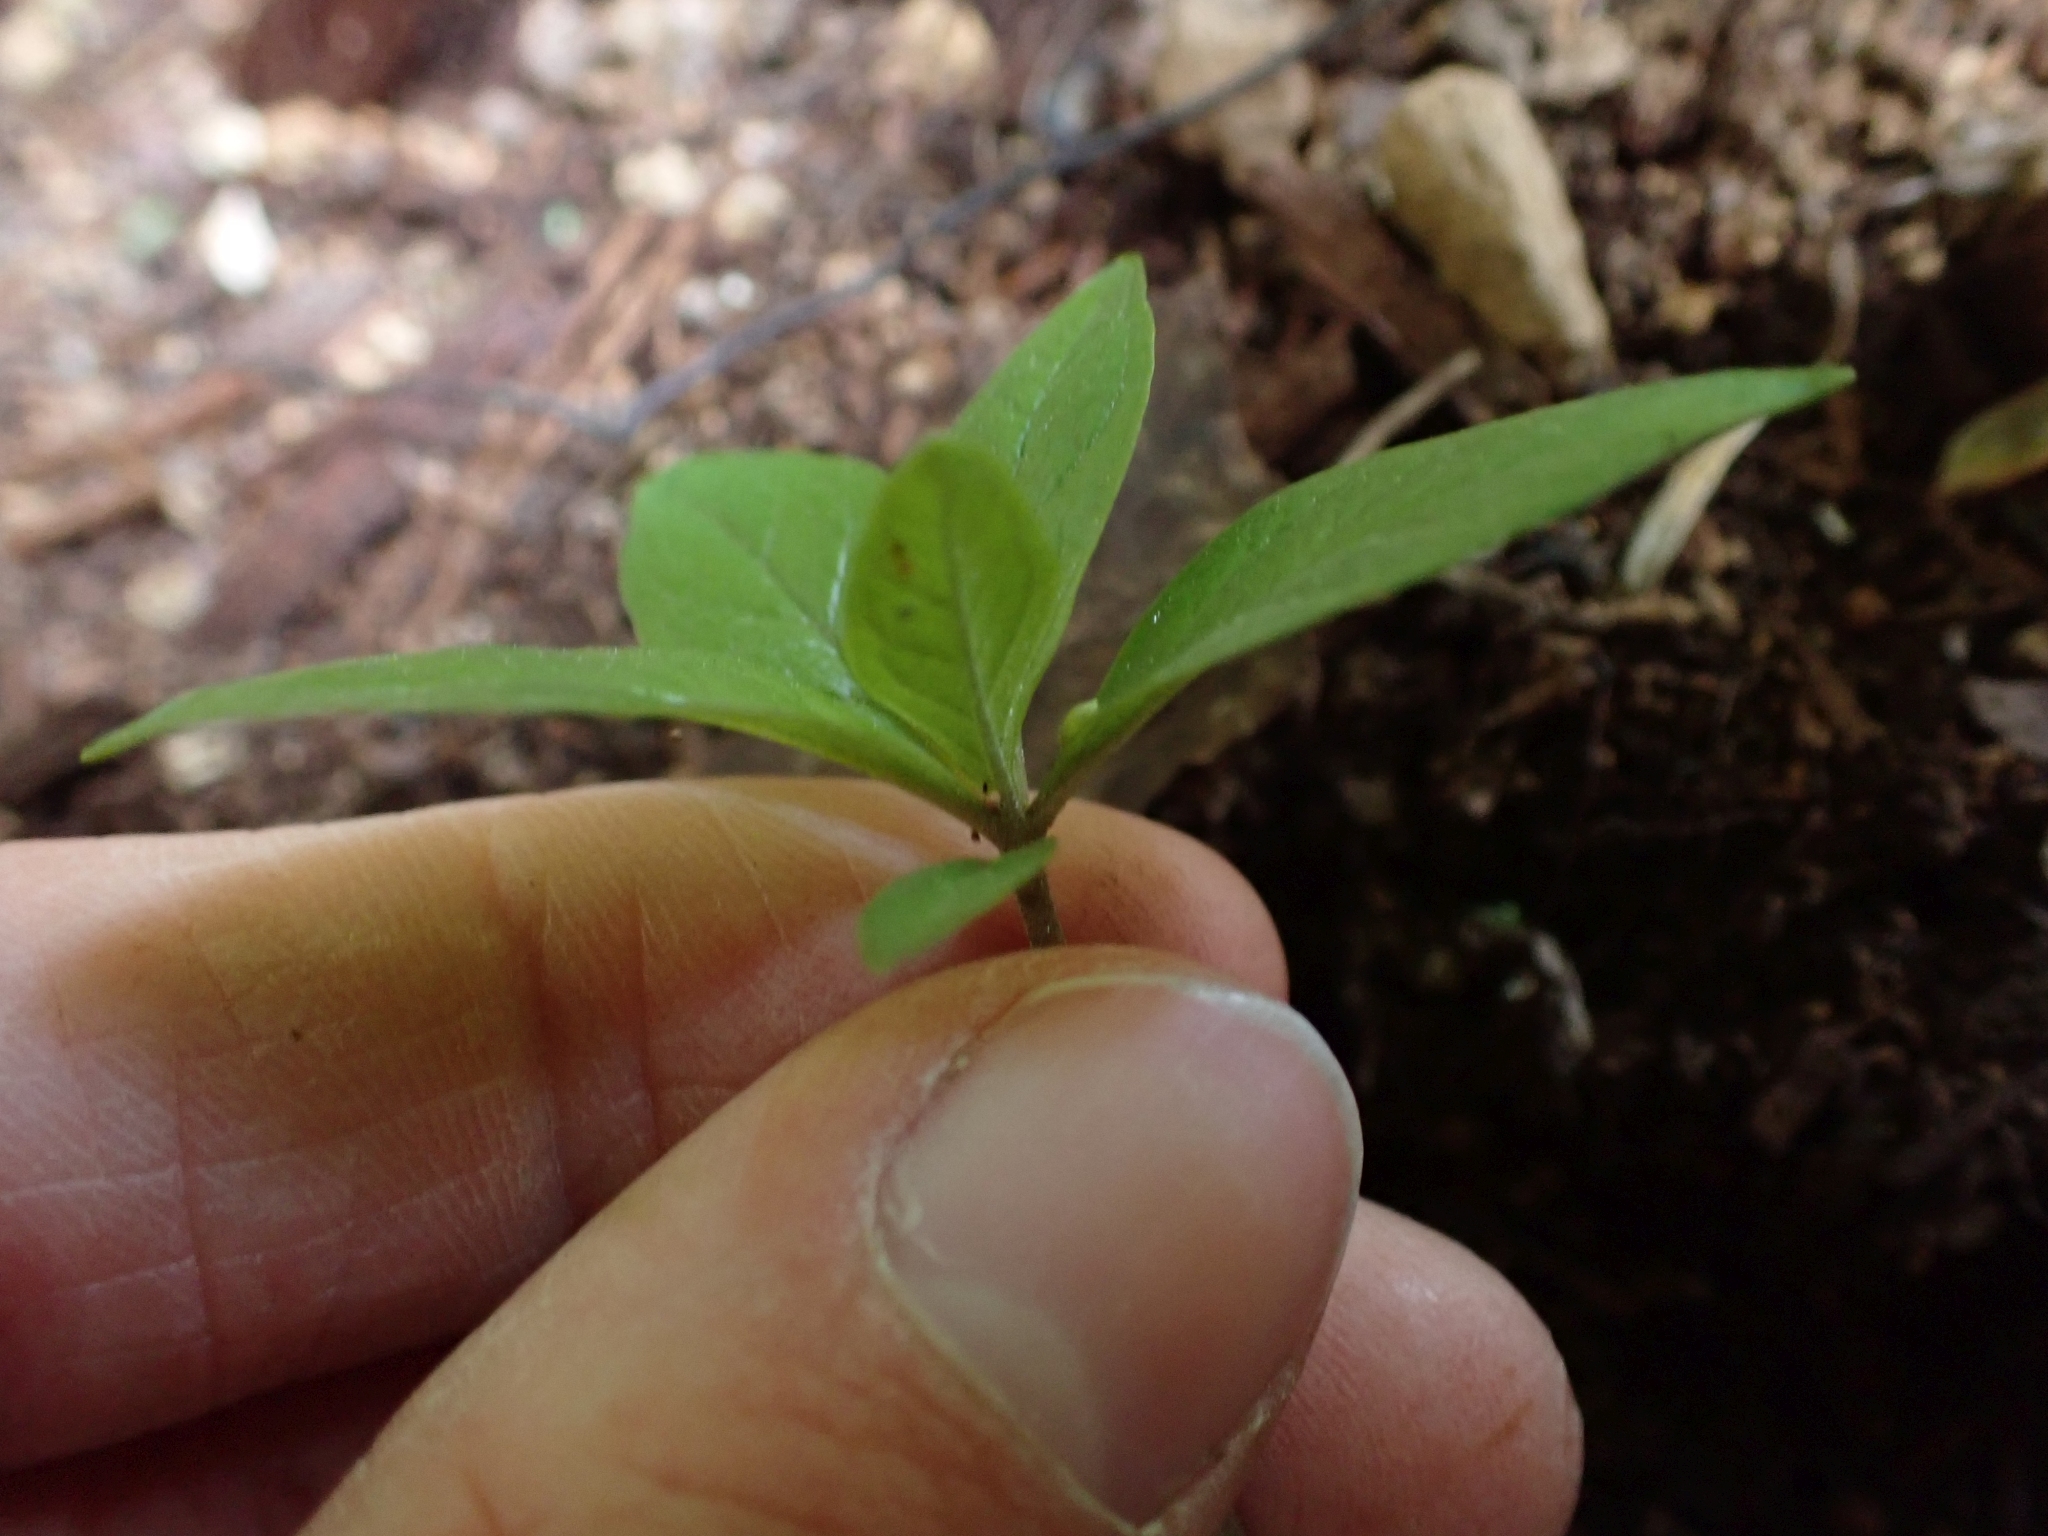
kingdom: Plantae
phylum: Tracheophyta
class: Magnoliopsida
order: Ericales
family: Primulaceae
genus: Lysimachia
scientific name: Lysimachia latifolia
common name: Pacific starflower
